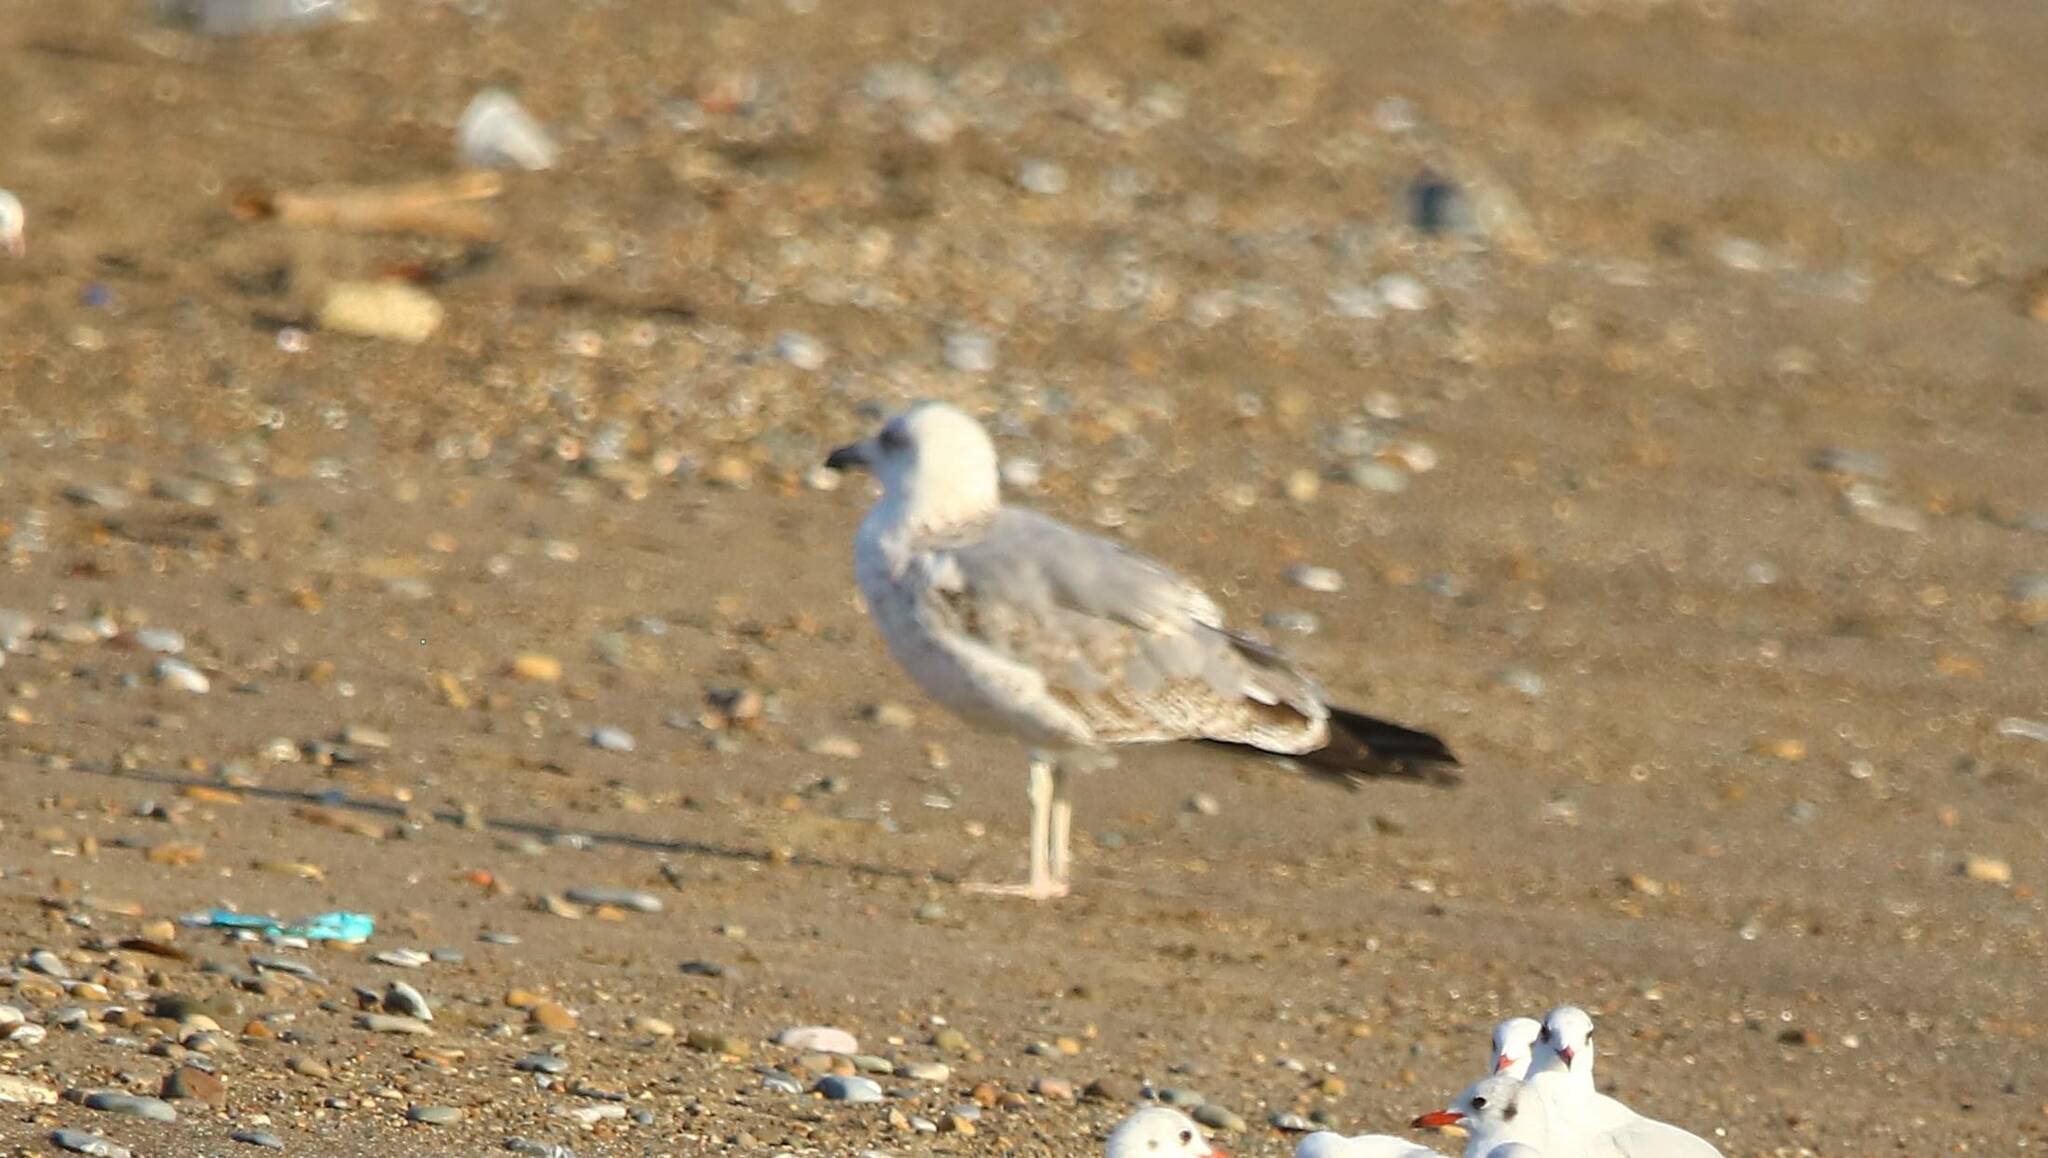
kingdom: Animalia
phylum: Chordata
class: Aves
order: Charadriiformes
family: Laridae
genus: Larus
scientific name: Larus michahellis
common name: Yellow-legged gull
